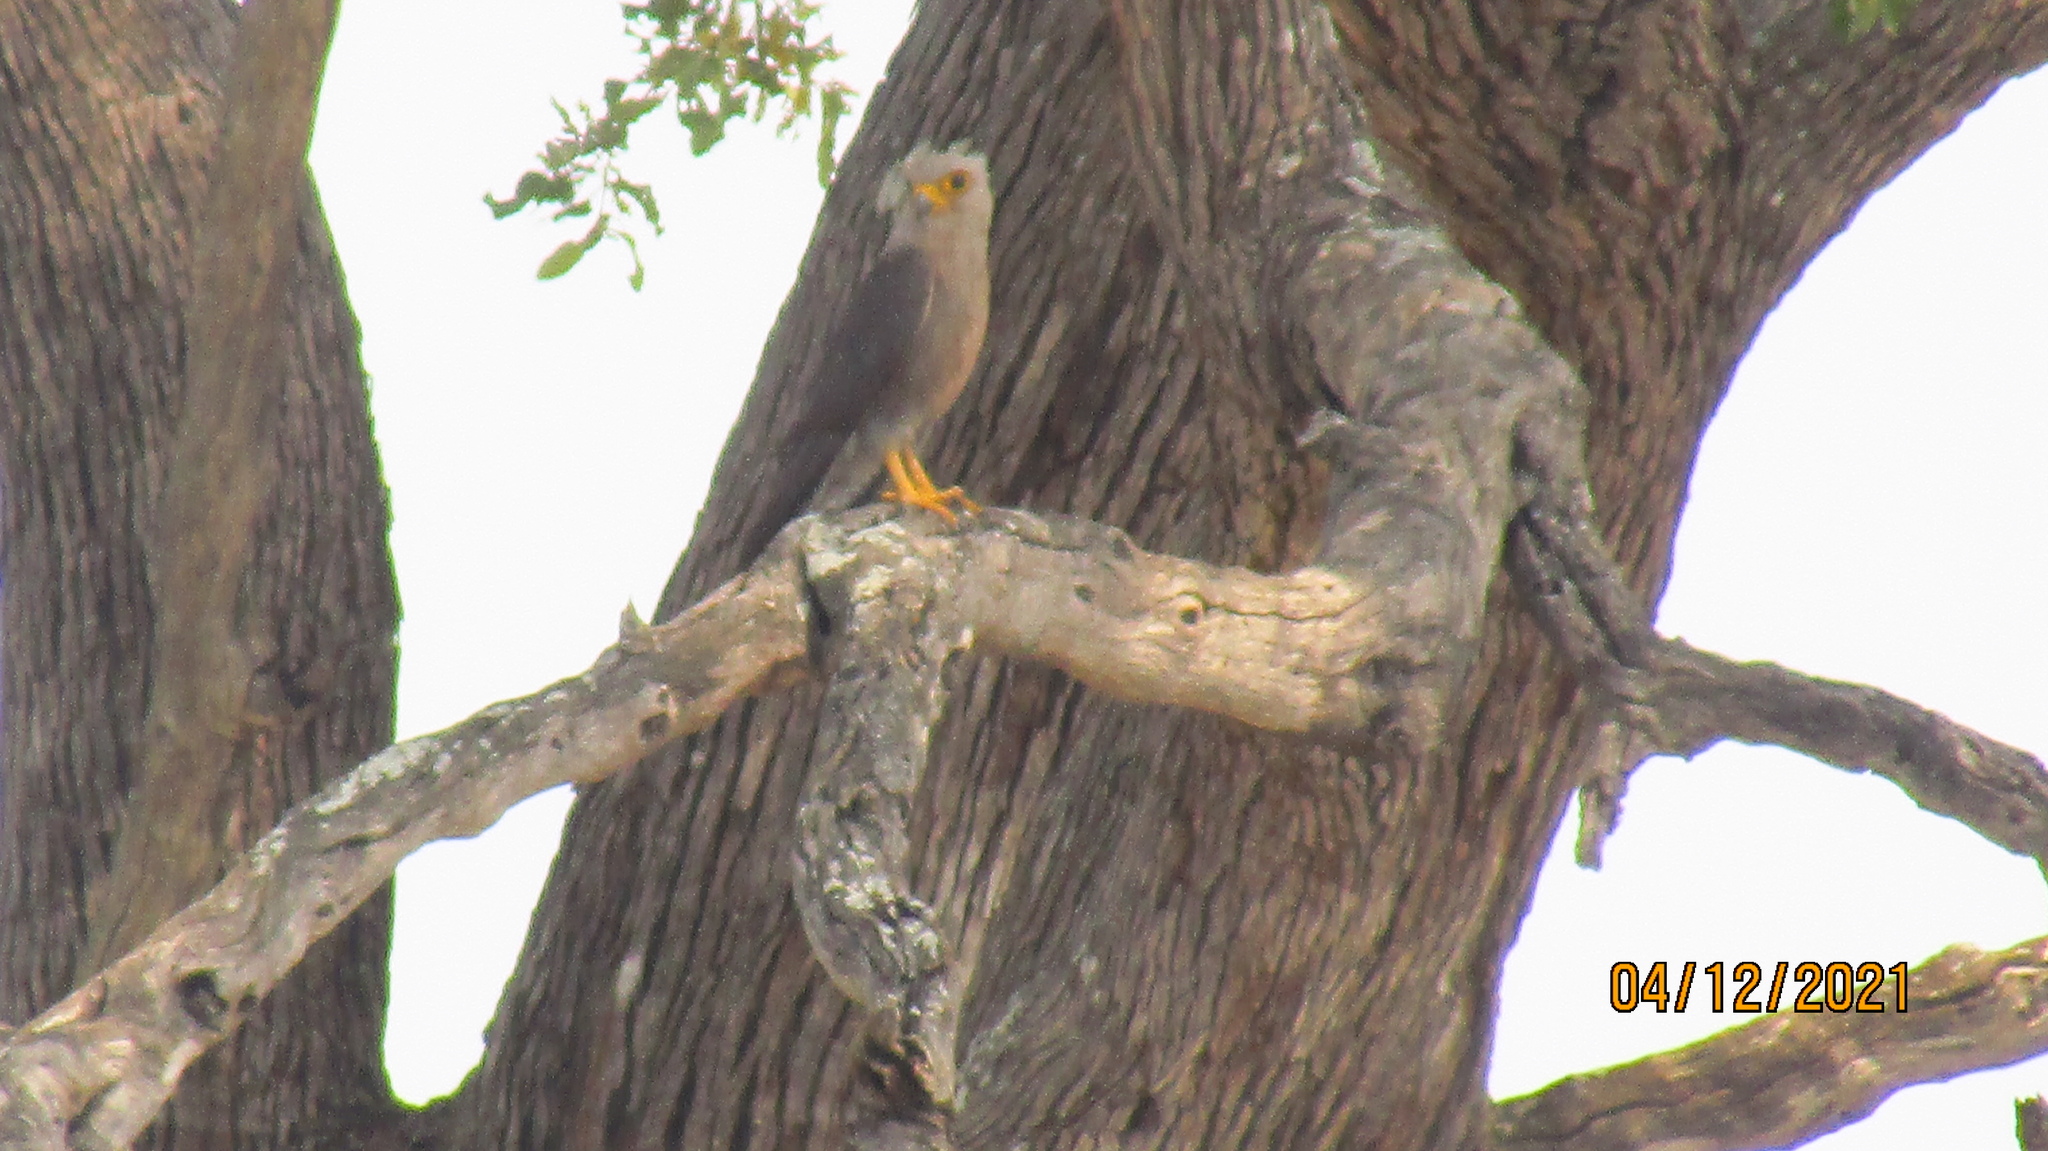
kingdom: Animalia
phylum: Chordata
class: Aves
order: Falconiformes
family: Falconidae
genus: Falco
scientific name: Falco dickinsoni
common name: Dickinson's kestrel
